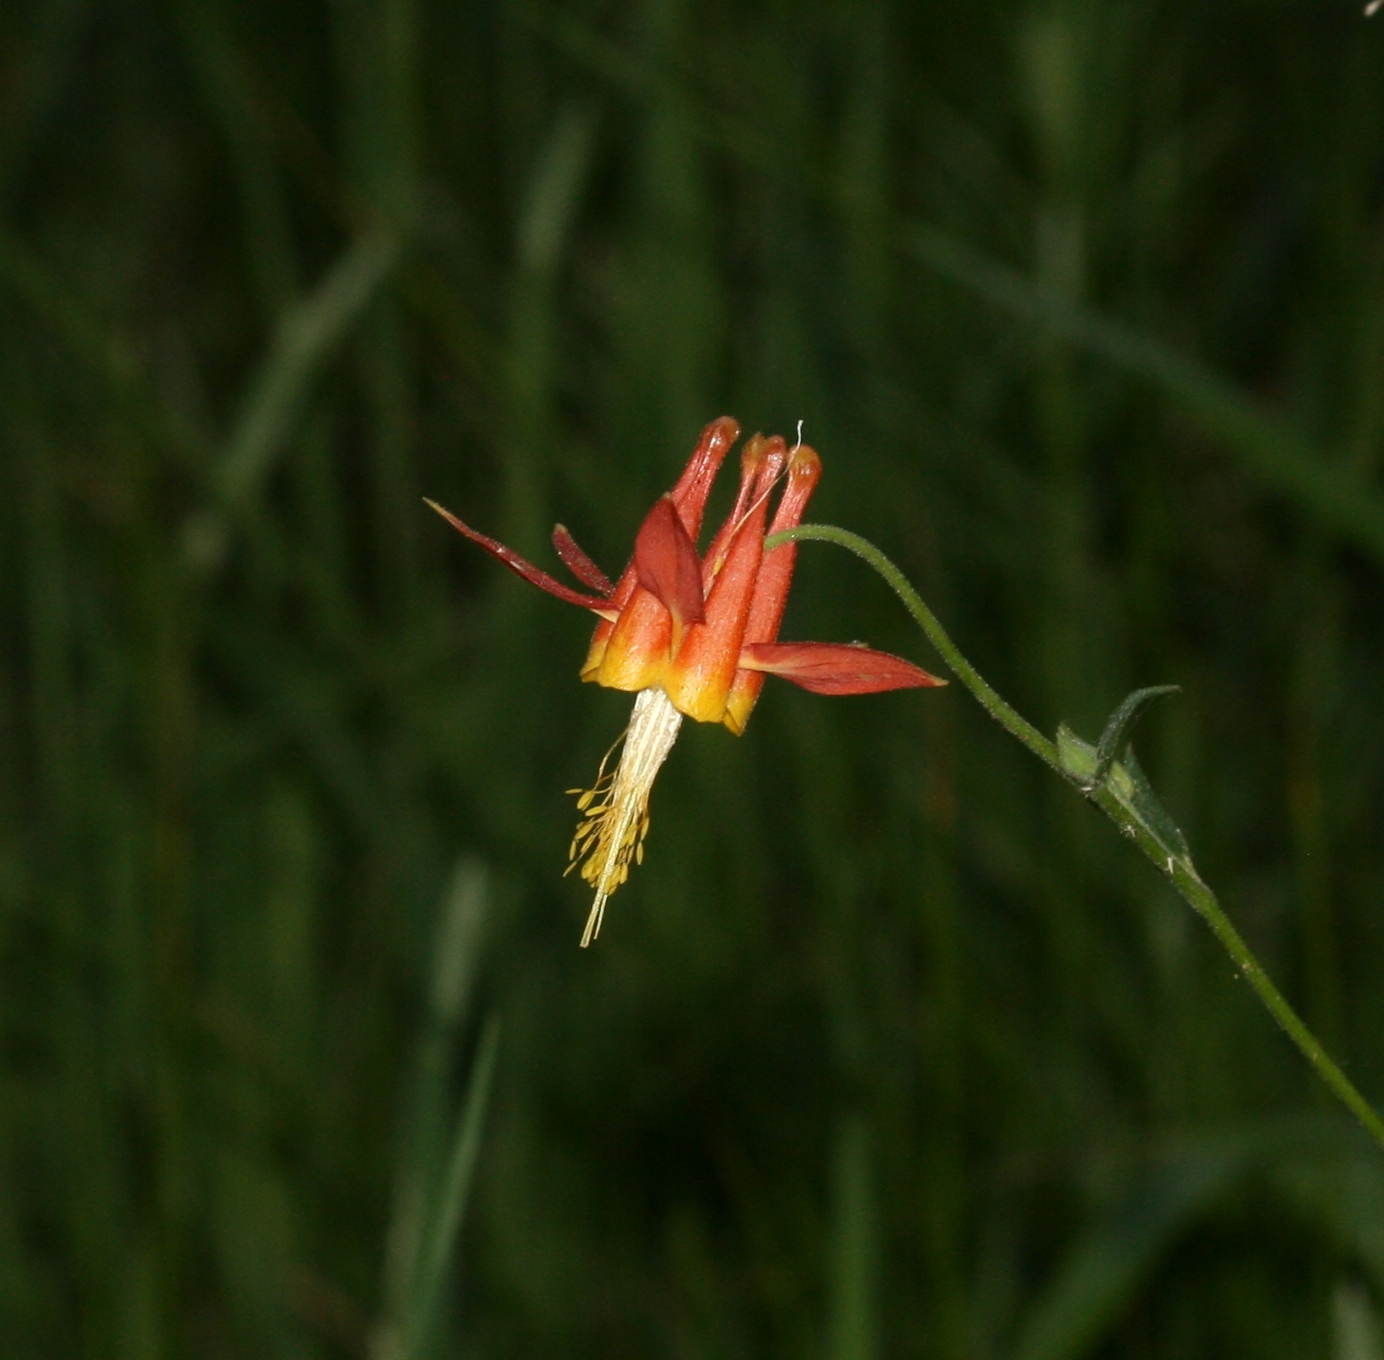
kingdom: Plantae
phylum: Tracheophyta
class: Magnoliopsida
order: Ranunculales
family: Ranunculaceae
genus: Aquilegia
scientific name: Aquilegia formosa
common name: Sitka columbine
